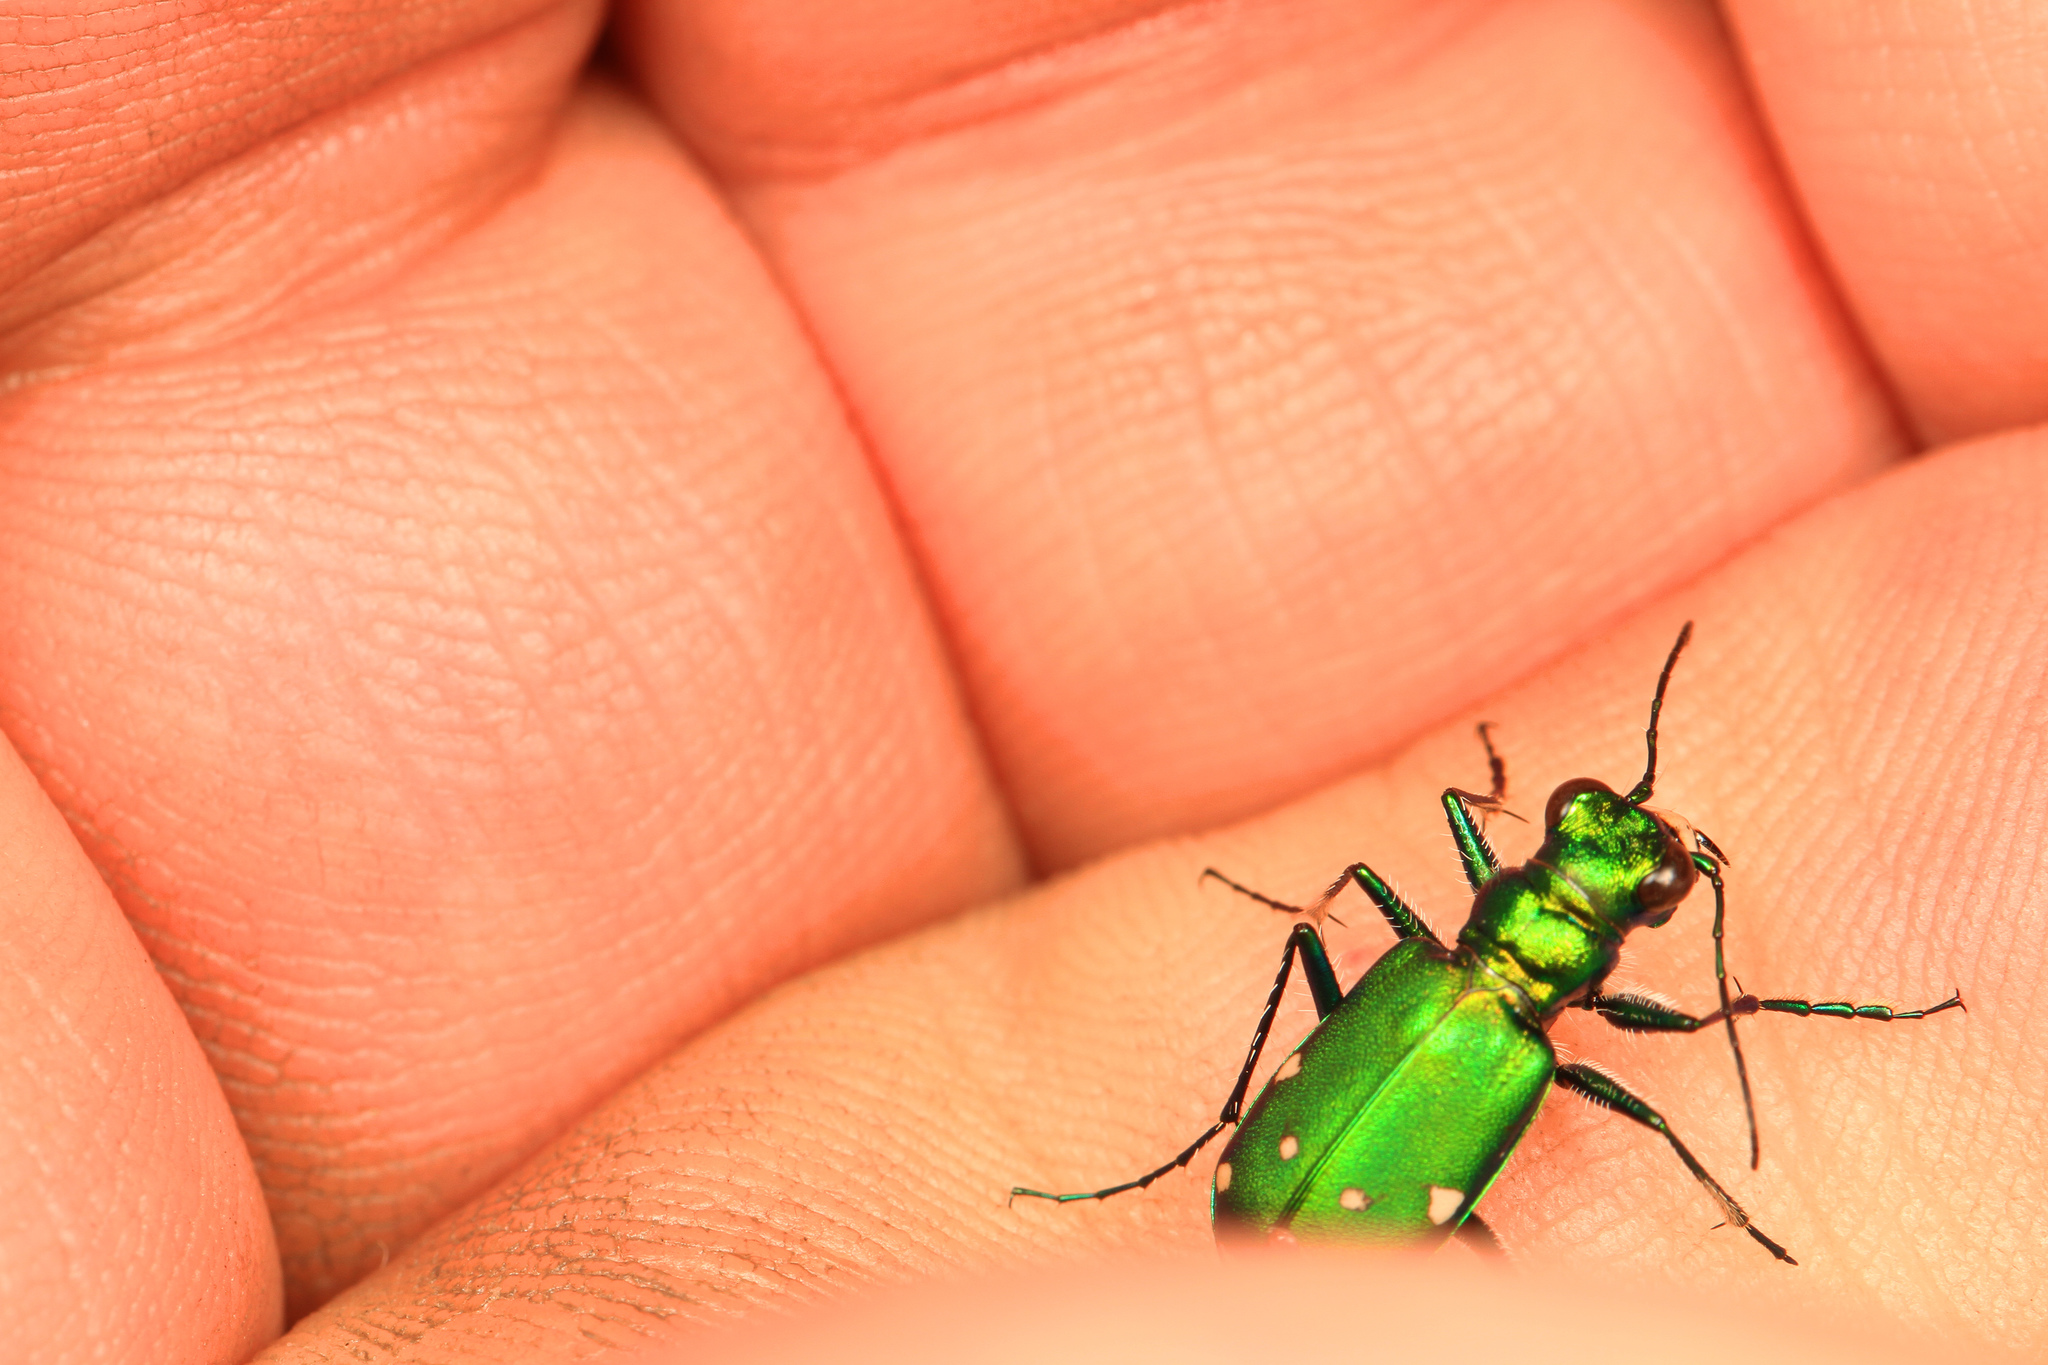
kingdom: Animalia
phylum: Arthropoda
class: Insecta
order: Coleoptera
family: Carabidae
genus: Cicindela
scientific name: Cicindela sexguttata
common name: Six-spotted tiger beetle
